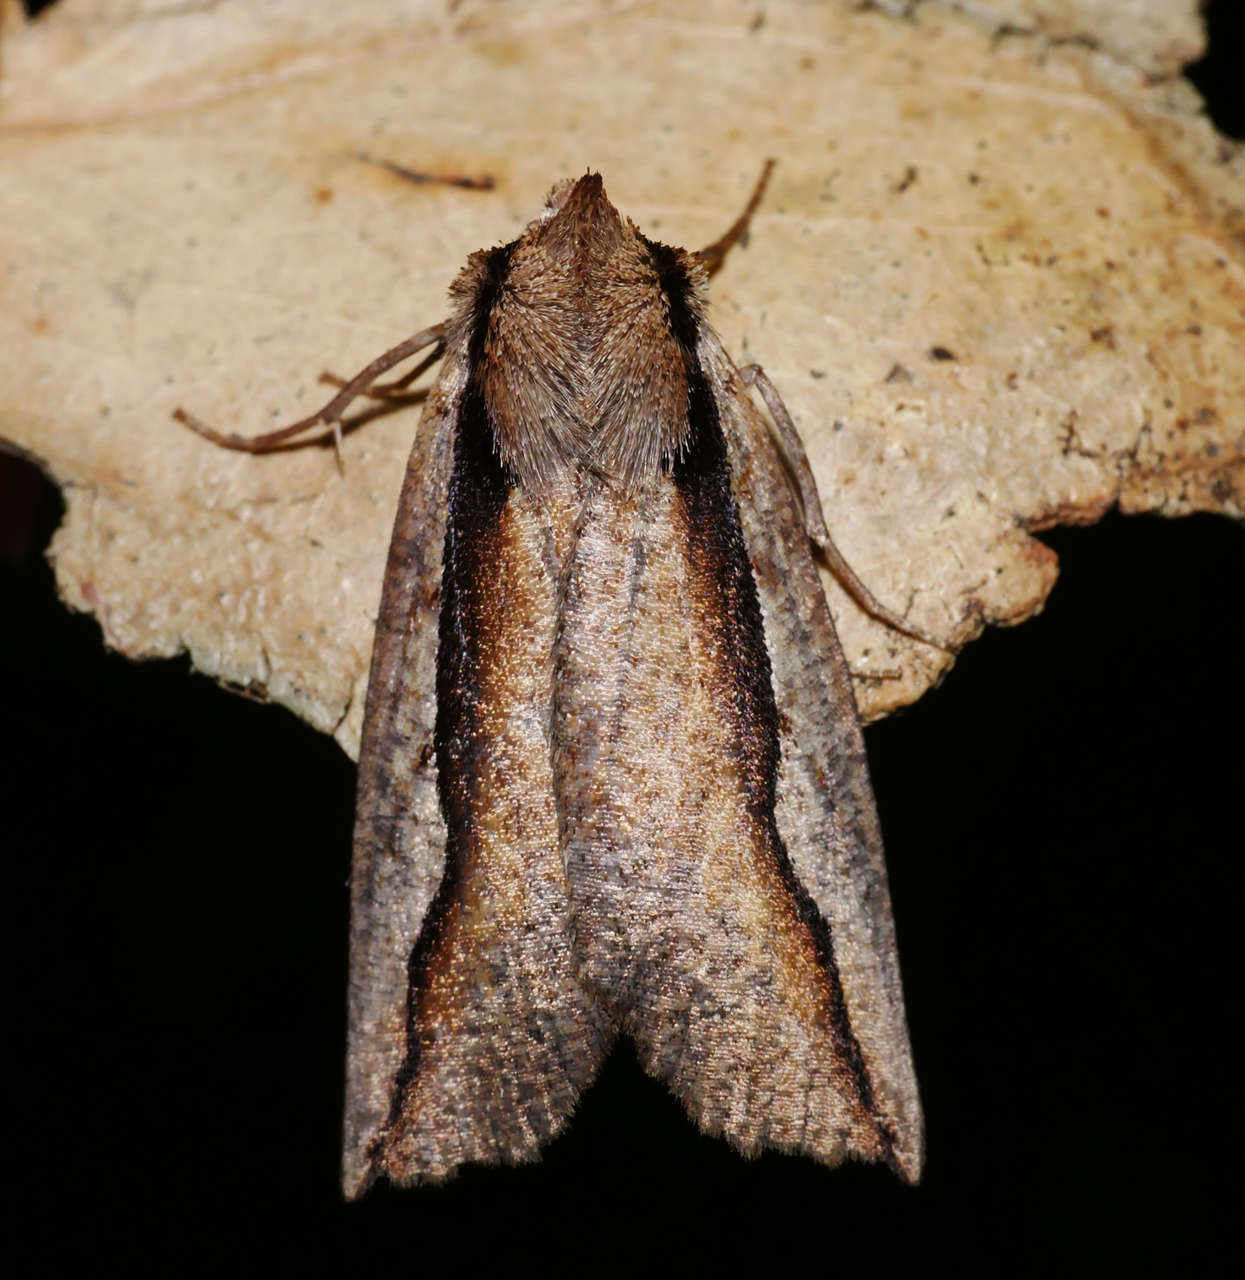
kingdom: Animalia
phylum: Arthropoda
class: Insecta
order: Lepidoptera
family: Geometridae
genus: Nisista
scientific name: Nisista
